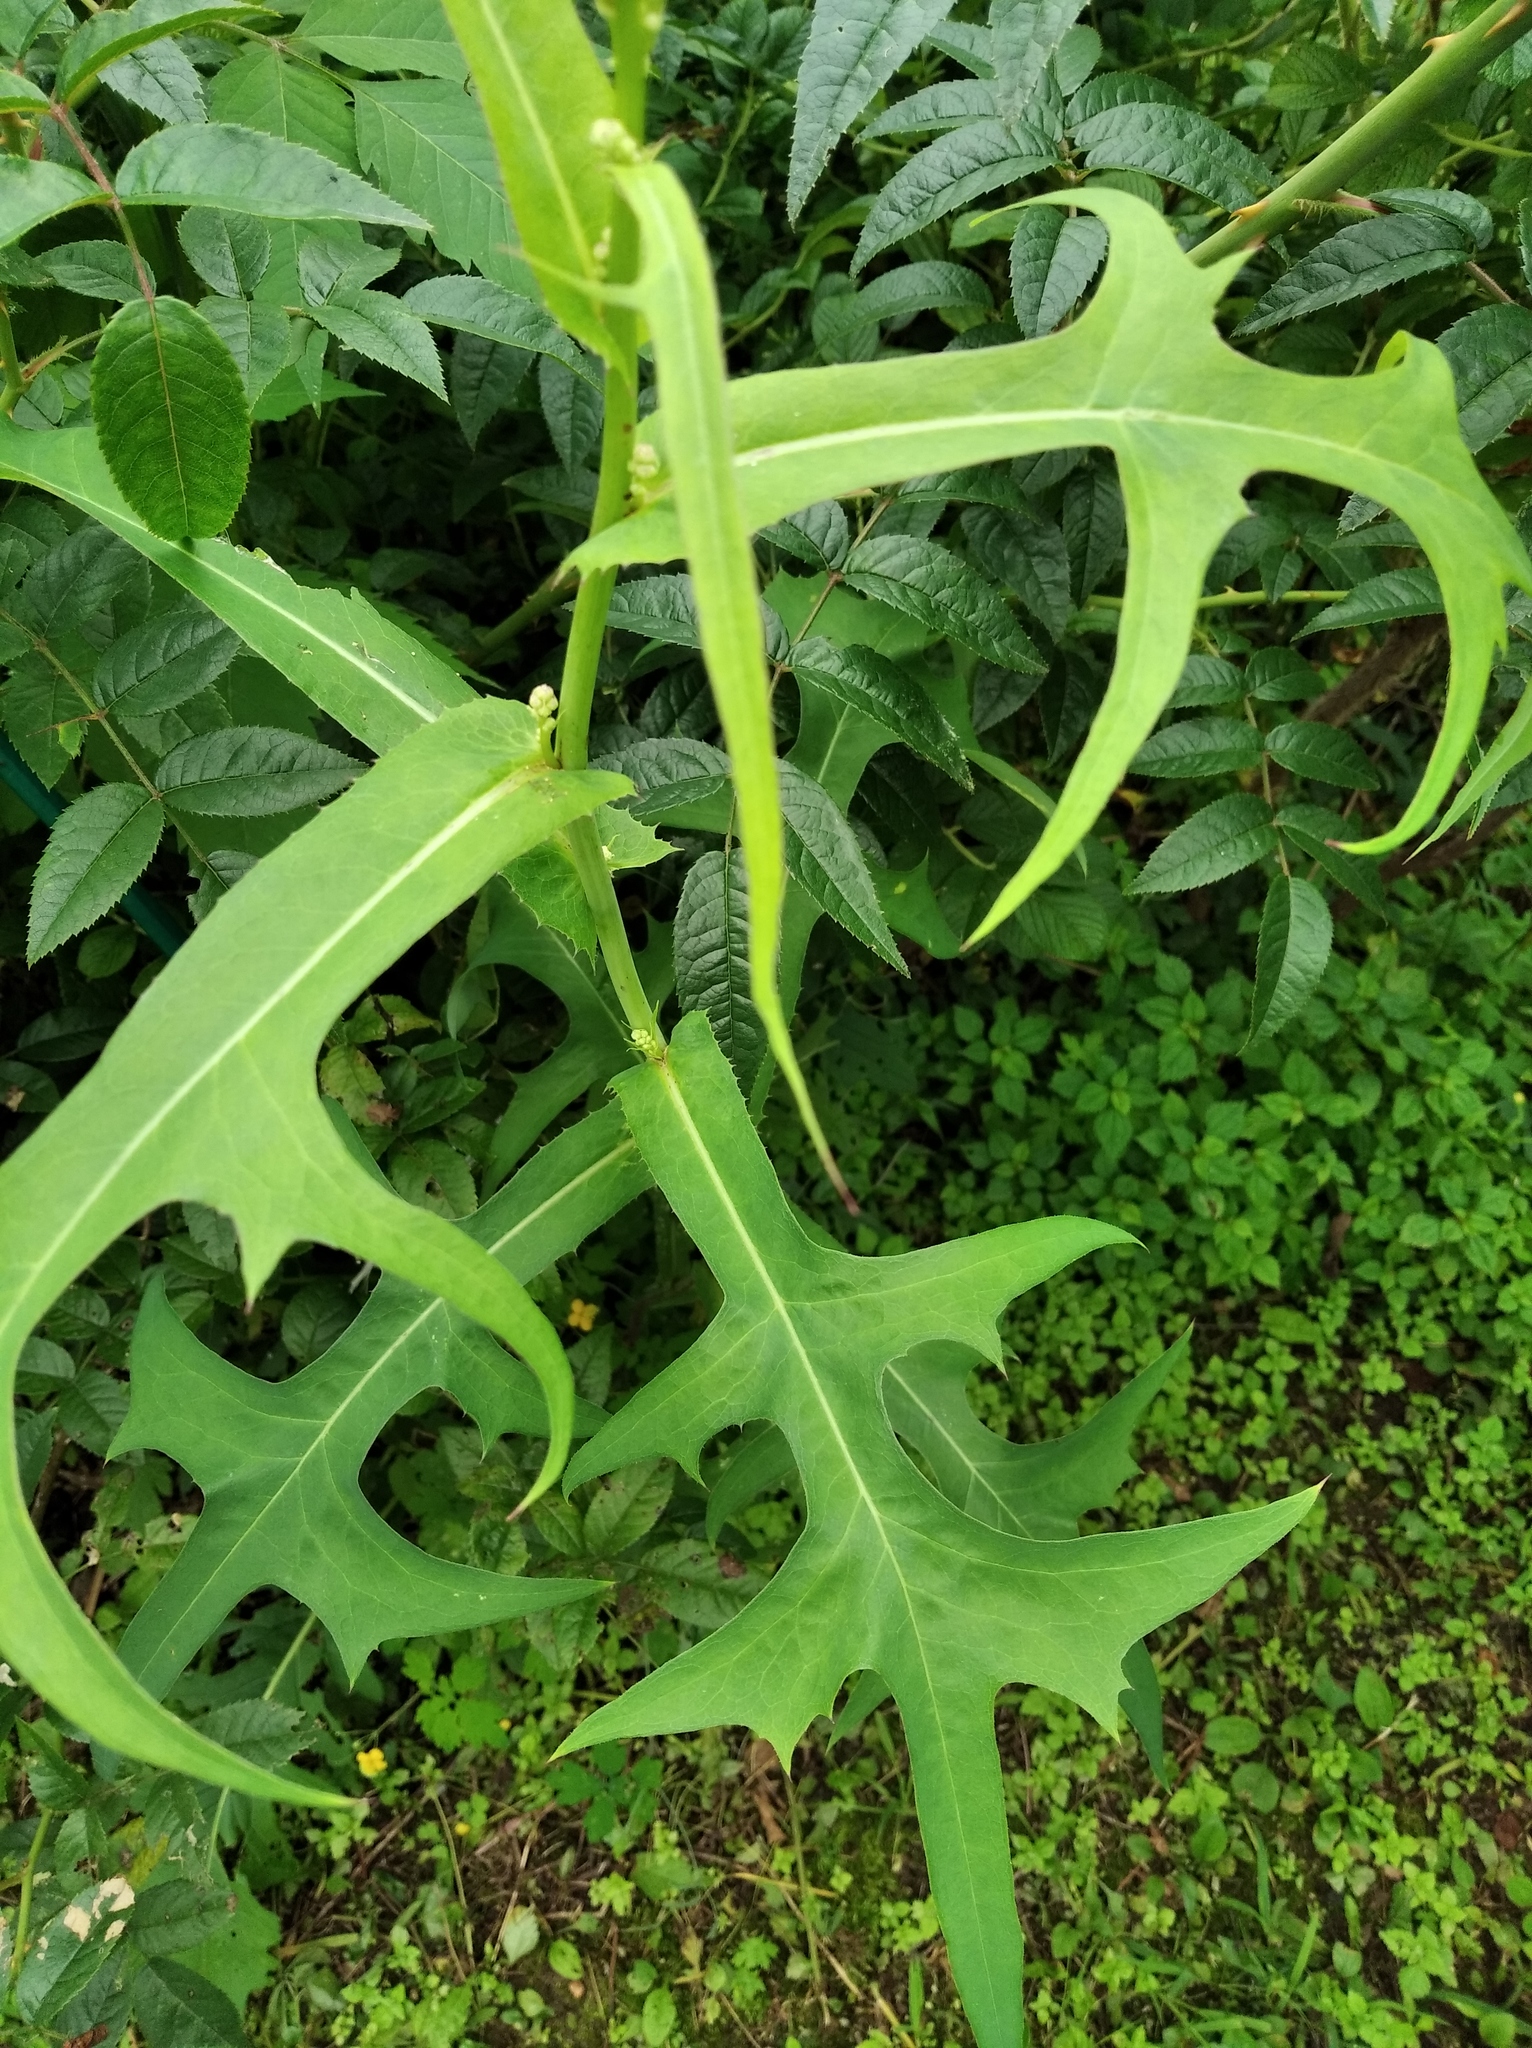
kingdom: Plantae
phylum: Tracheophyta
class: Magnoliopsida
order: Asterales
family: Asteraceae
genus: Lactuca
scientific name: Lactuca indica
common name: Wild lettuce
